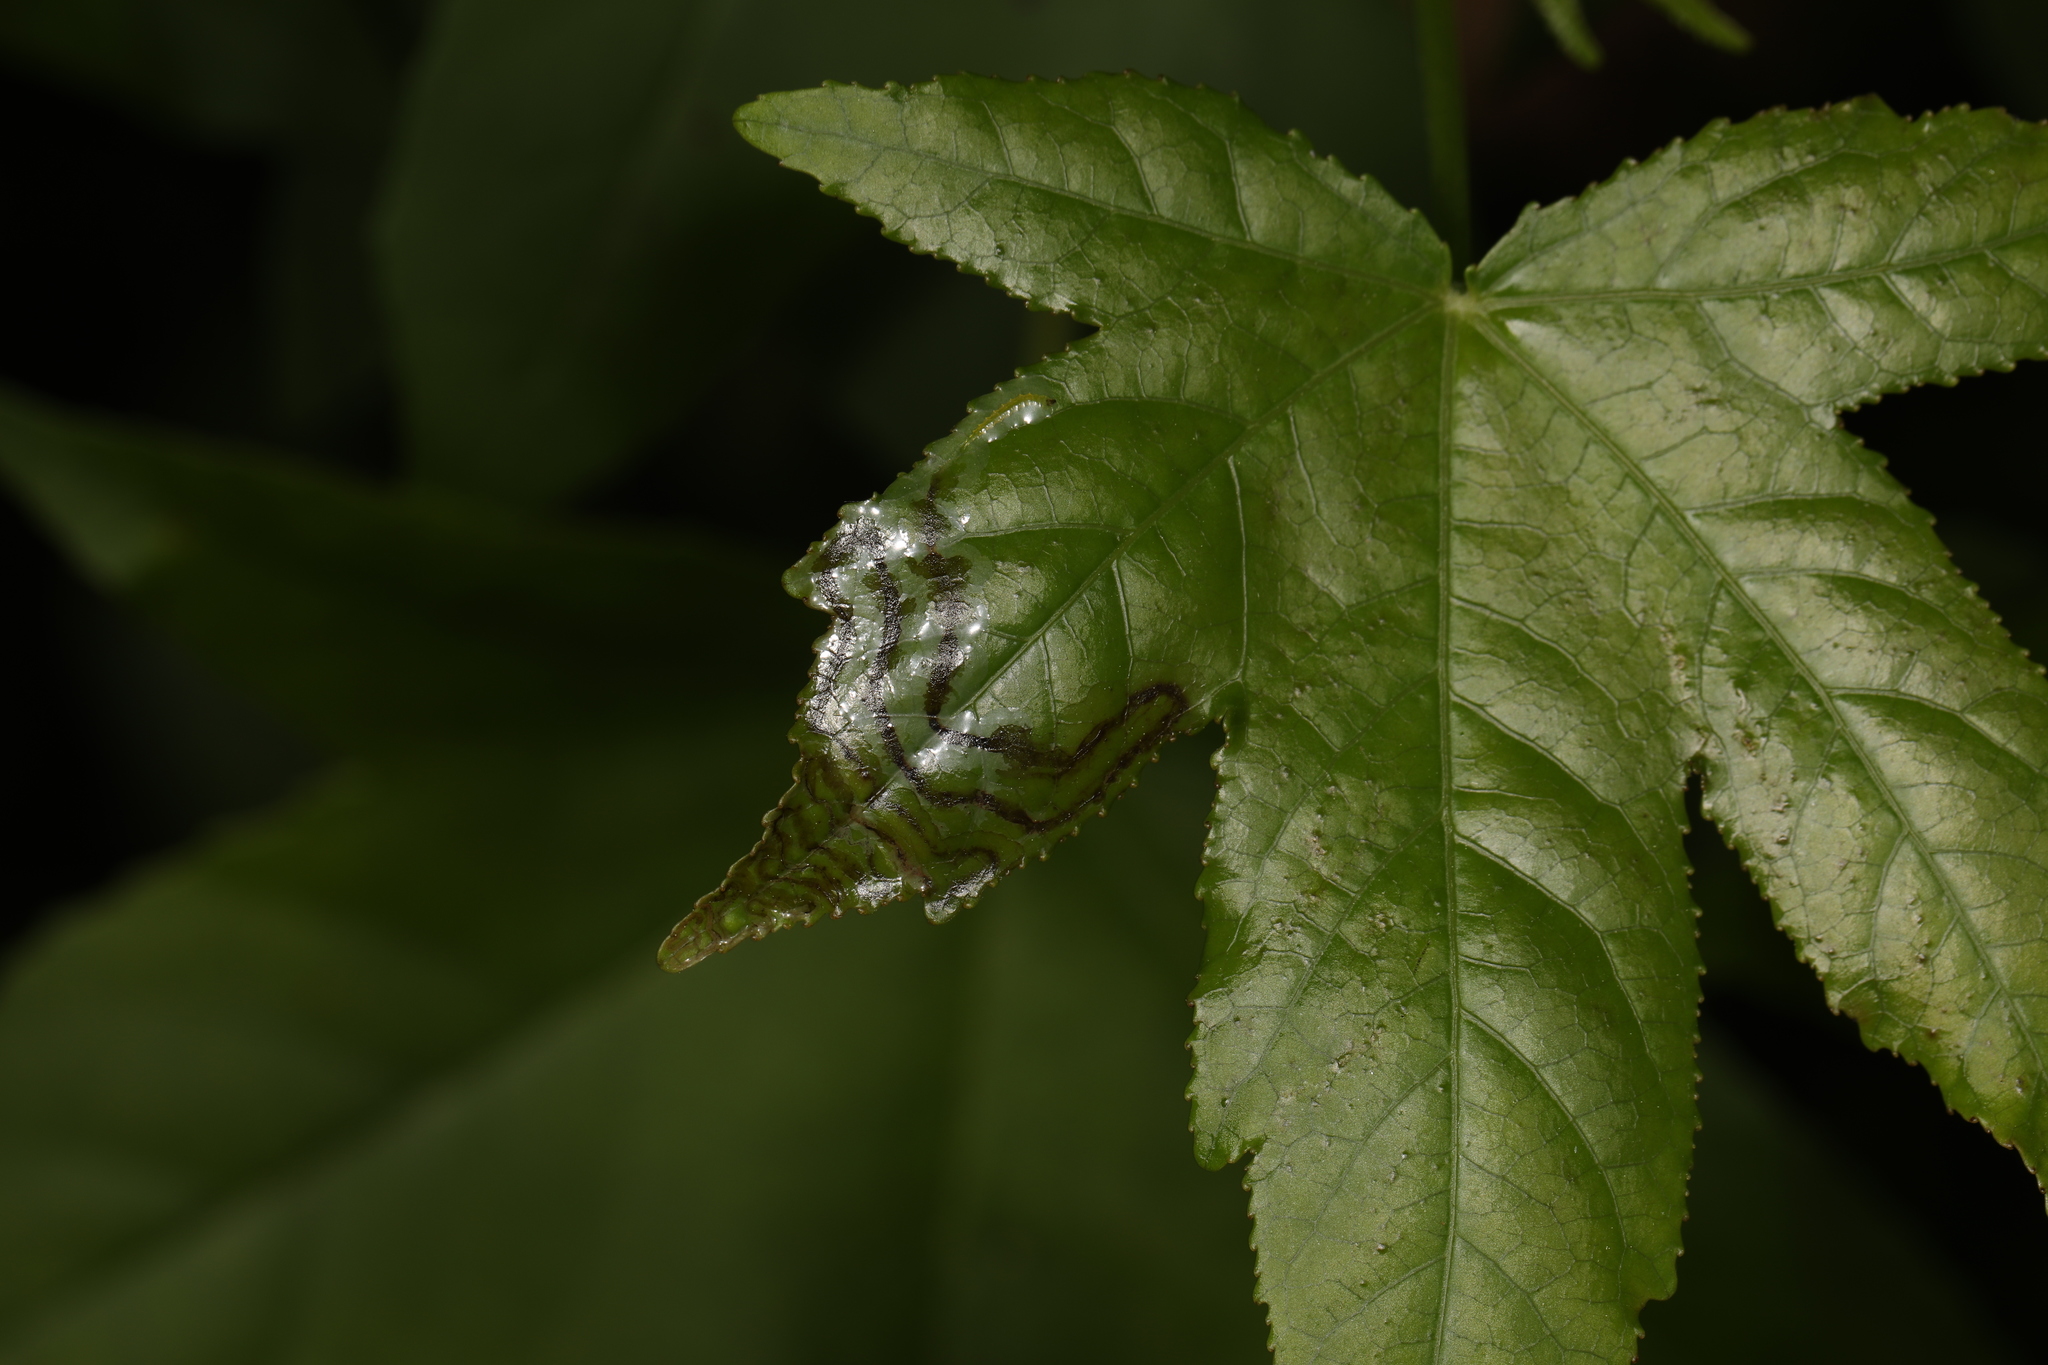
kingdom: Animalia
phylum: Arthropoda
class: Insecta
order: Lepidoptera
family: Gracillariidae
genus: Phyllocnistis
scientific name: Phyllocnistis liquidambarisella
